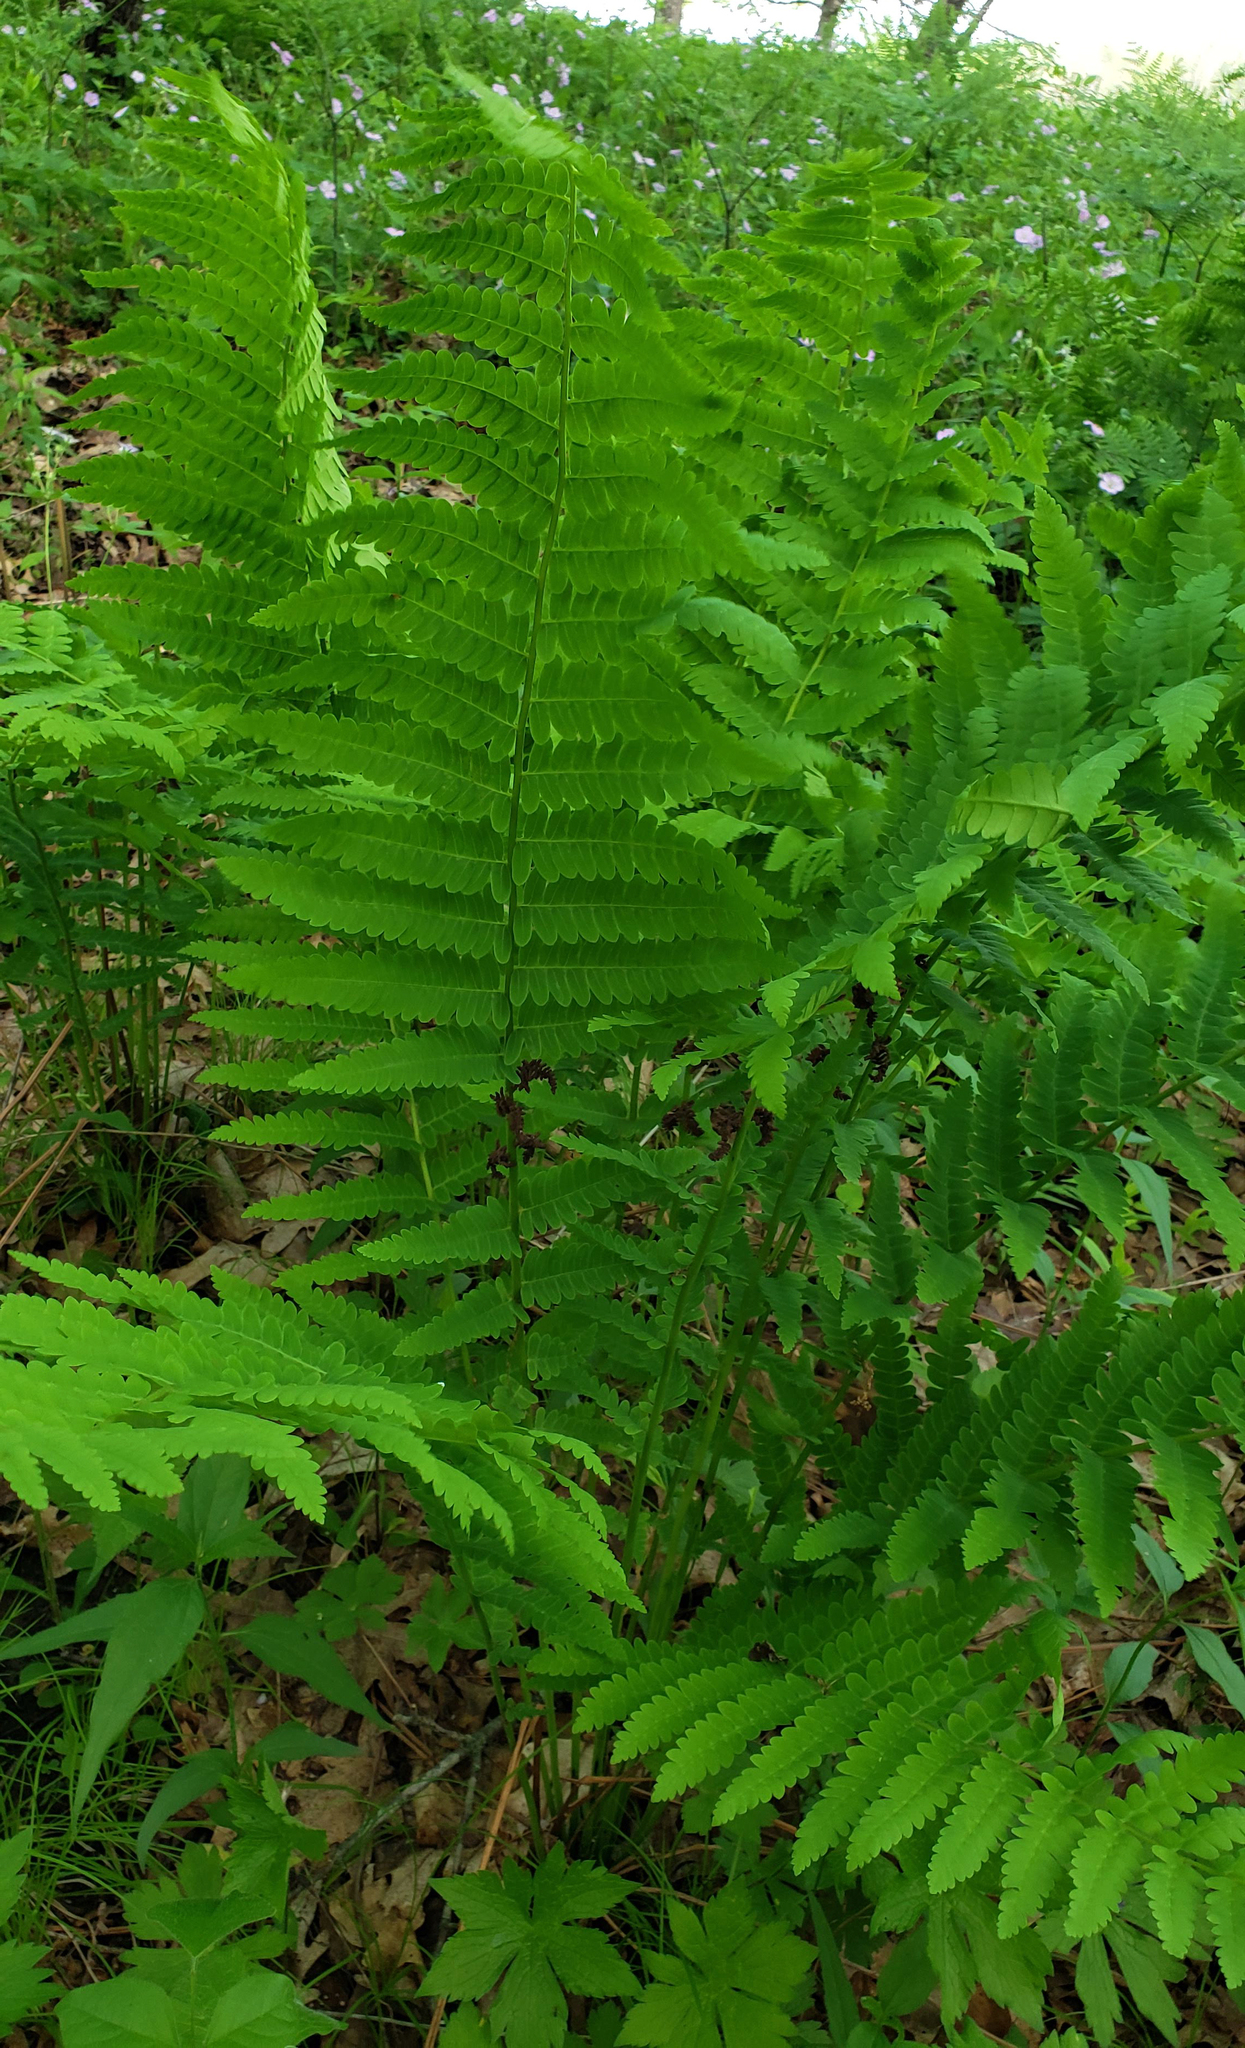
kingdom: Plantae
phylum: Tracheophyta
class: Polypodiopsida
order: Osmundales
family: Osmundaceae
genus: Claytosmunda
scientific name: Claytosmunda claytoniana
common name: Clayton's fern
